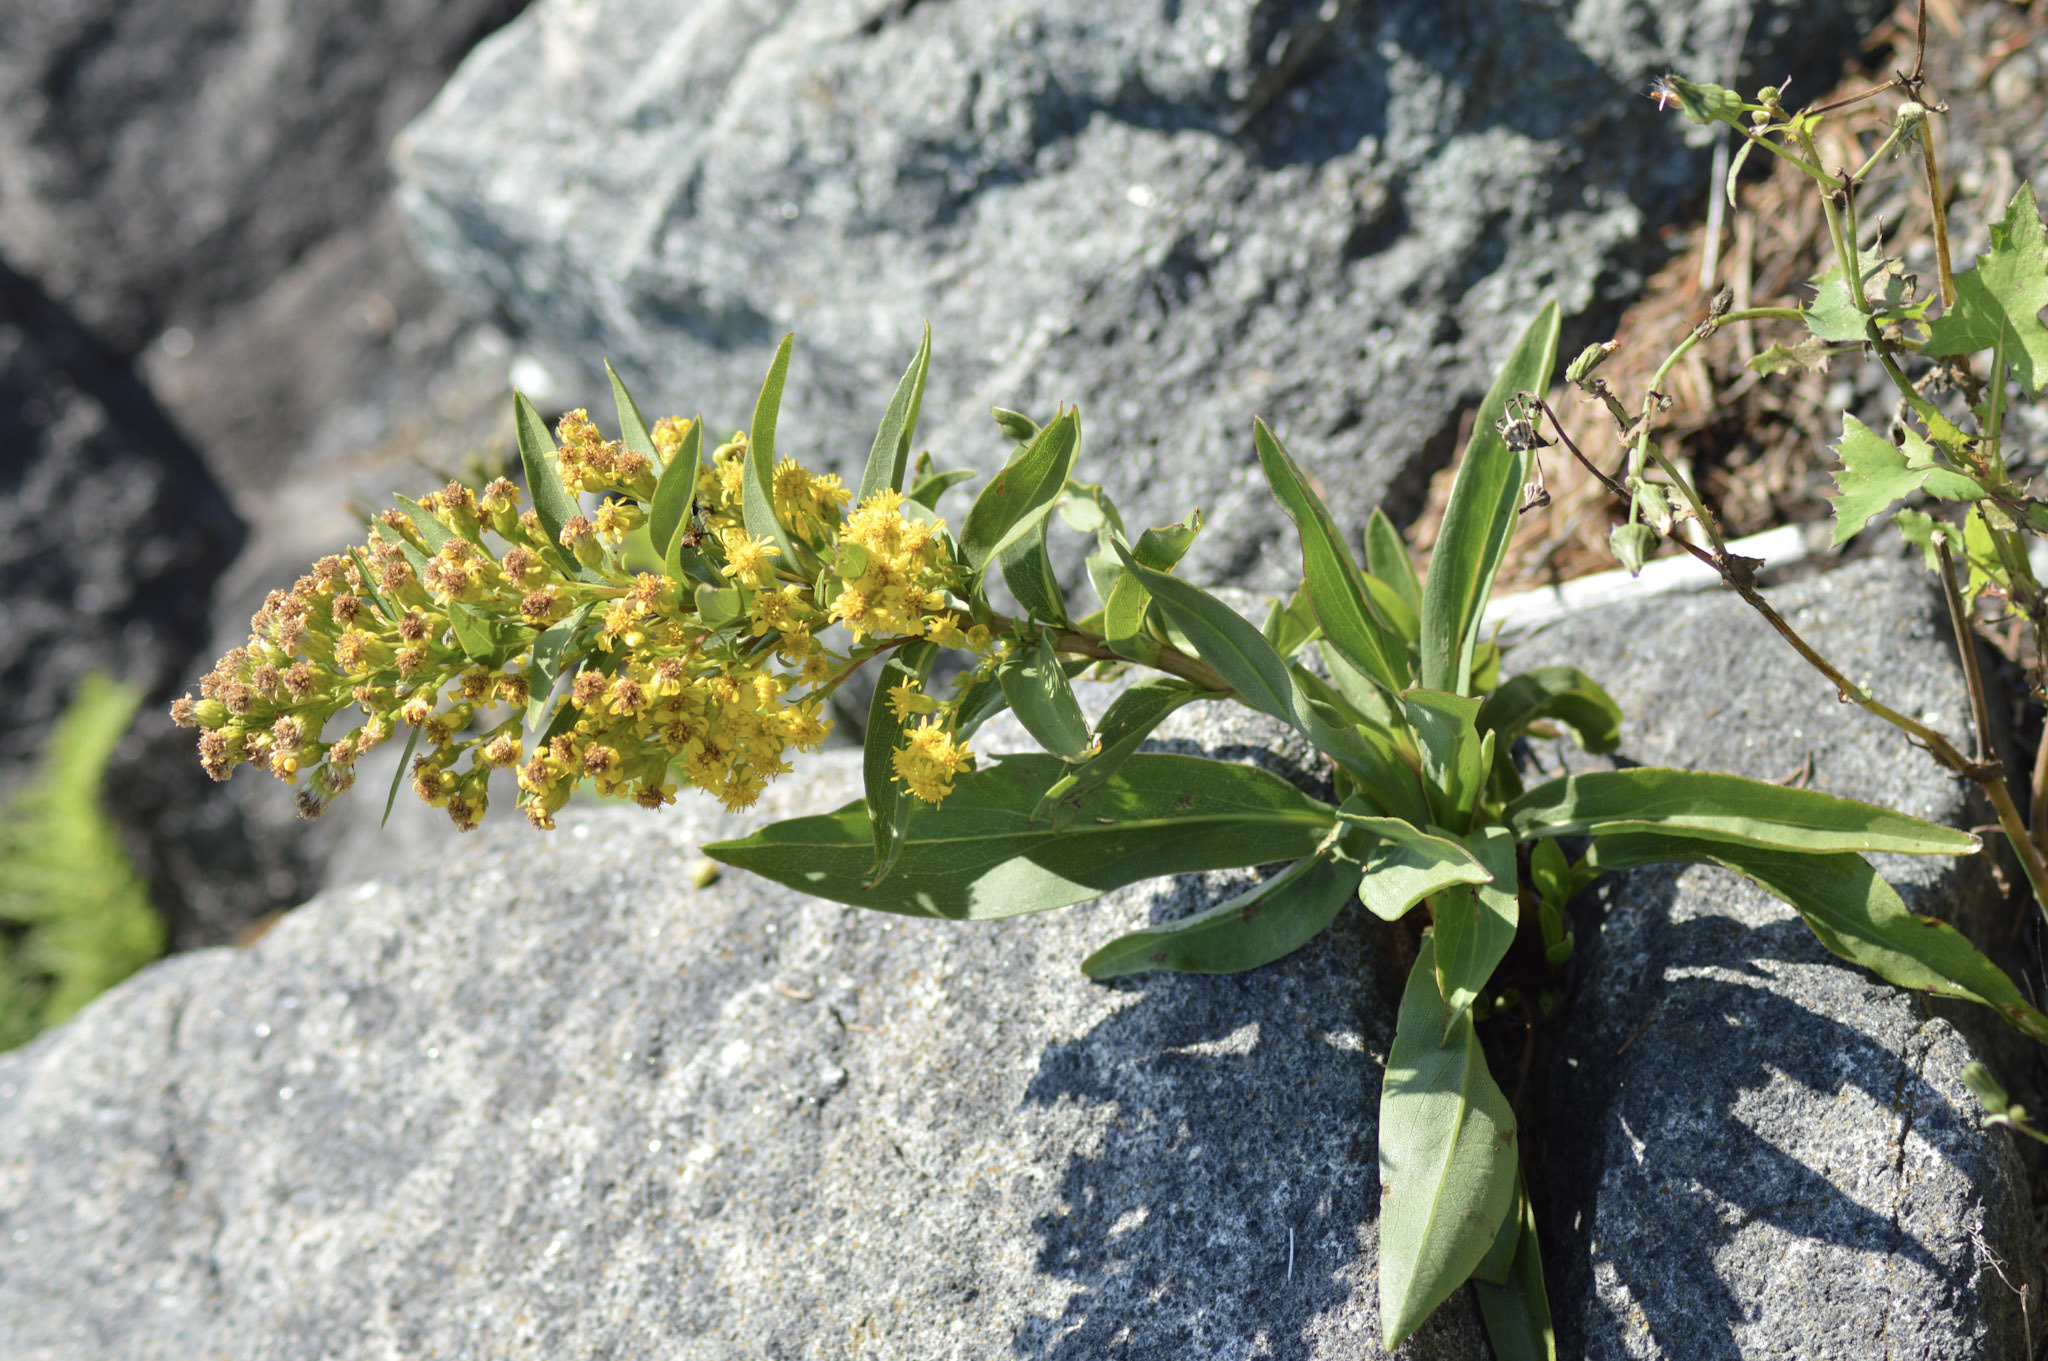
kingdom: Plantae
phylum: Tracheophyta
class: Magnoliopsida
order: Asterales
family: Asteraceae
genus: Solidago
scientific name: Solidago sempervirens
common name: Salt-marsh goldenrod
